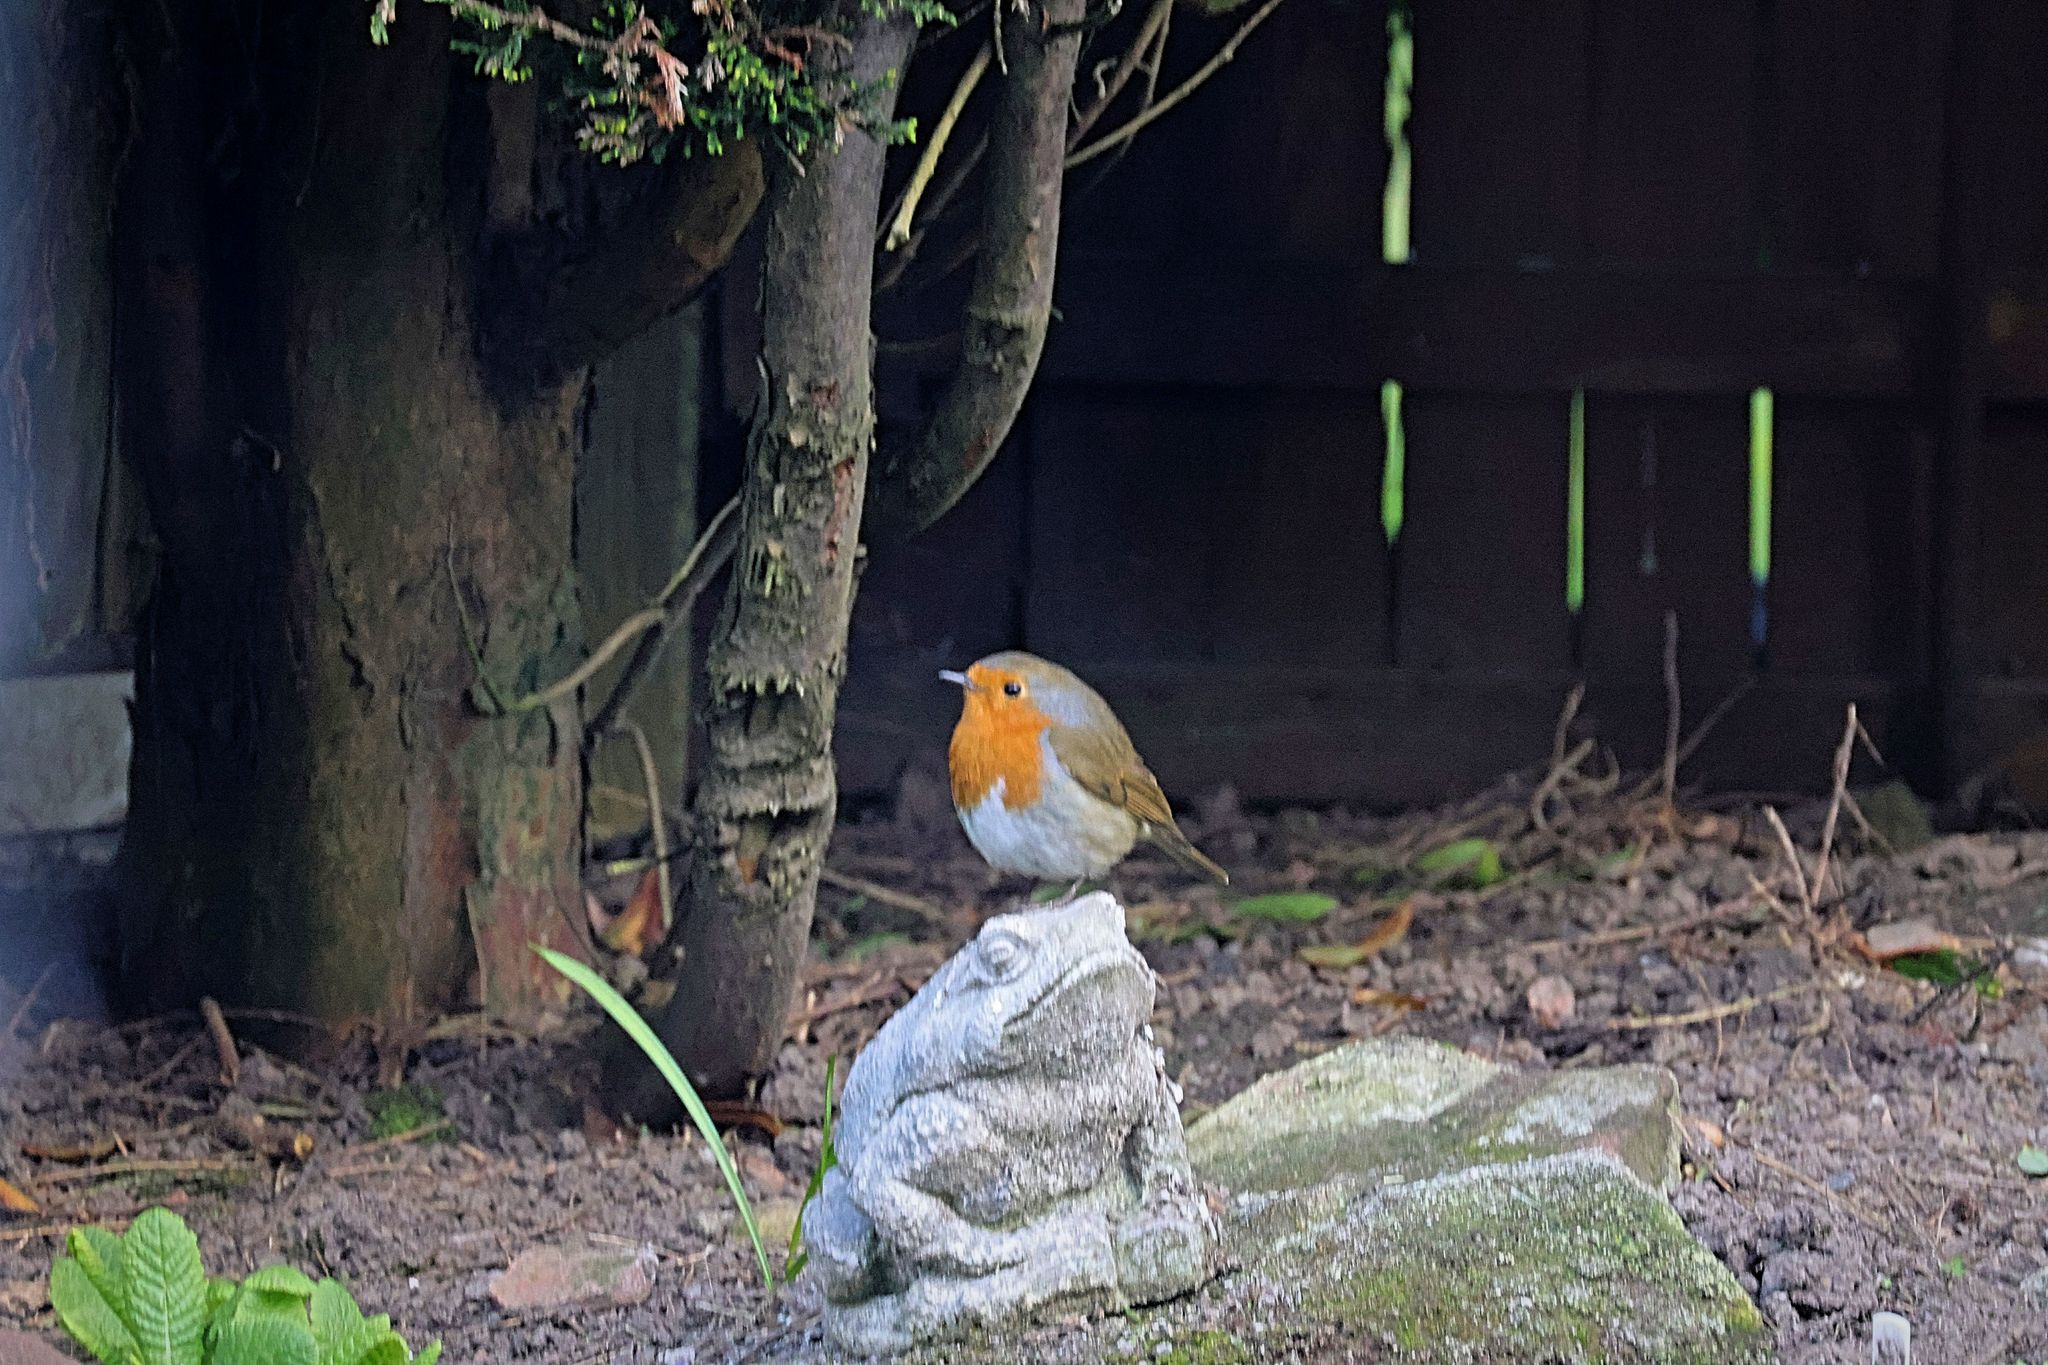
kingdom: Animalia
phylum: Chordata
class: Aves
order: Passeriformes
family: Muscicapidae
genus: Erithacus
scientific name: Erithacus rubecula
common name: European robin
